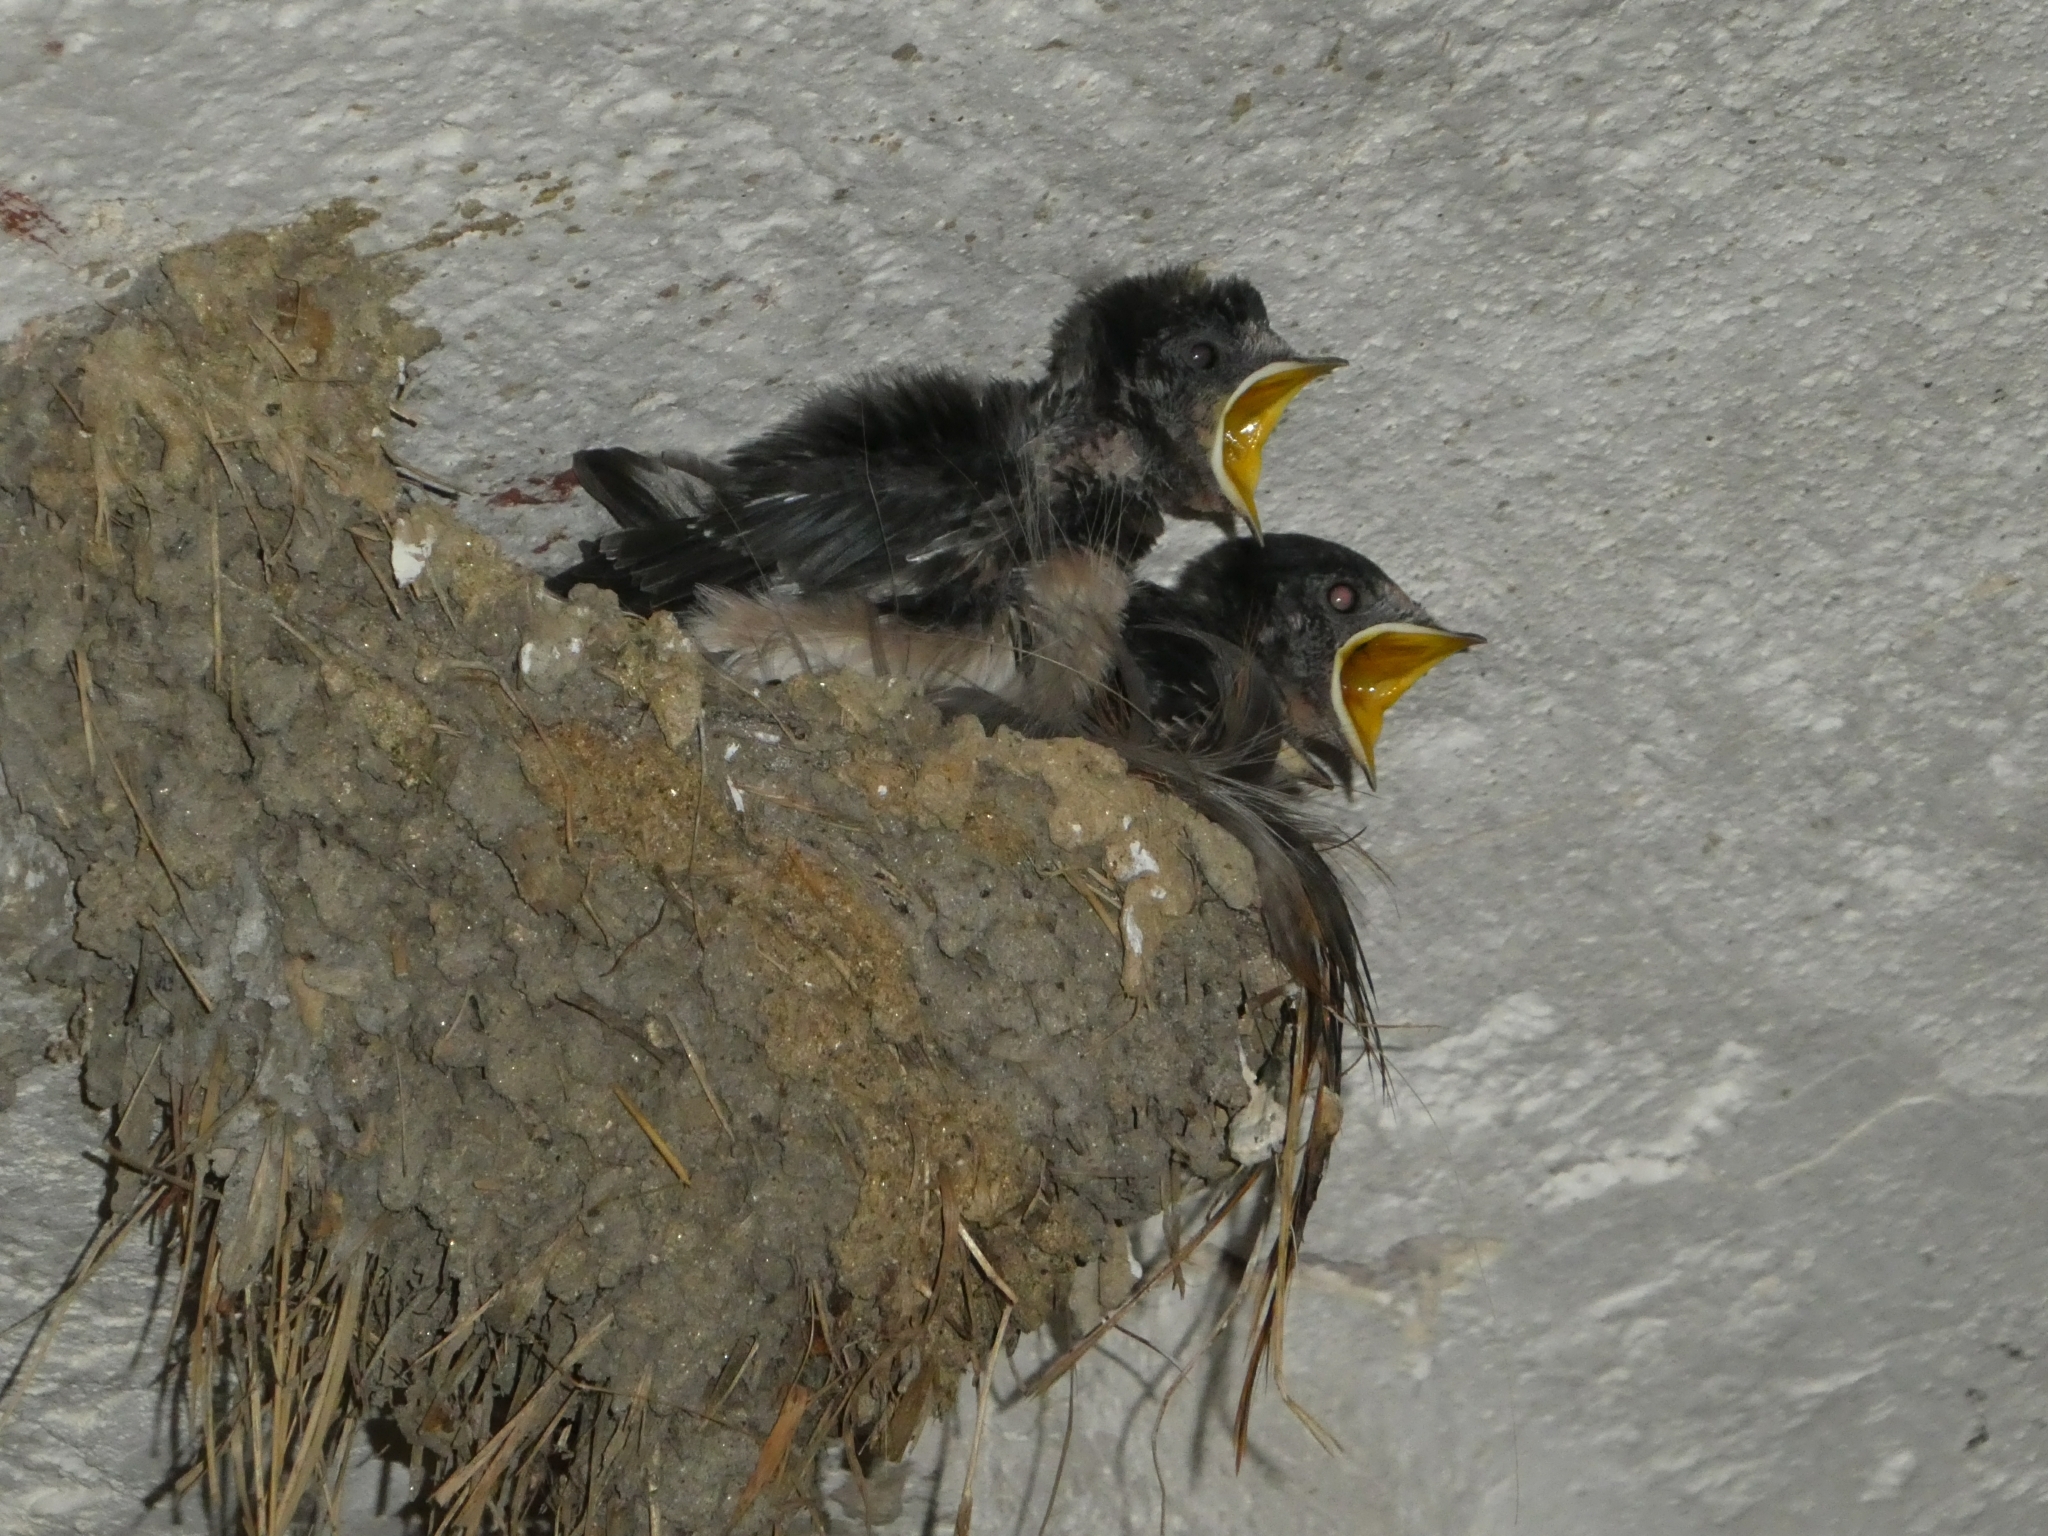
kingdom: Animalia
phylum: Chordata
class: Aves
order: Passeriformes
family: Hirundinidae
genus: Hirundo
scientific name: Hirundo rustica
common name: Barn swallow
